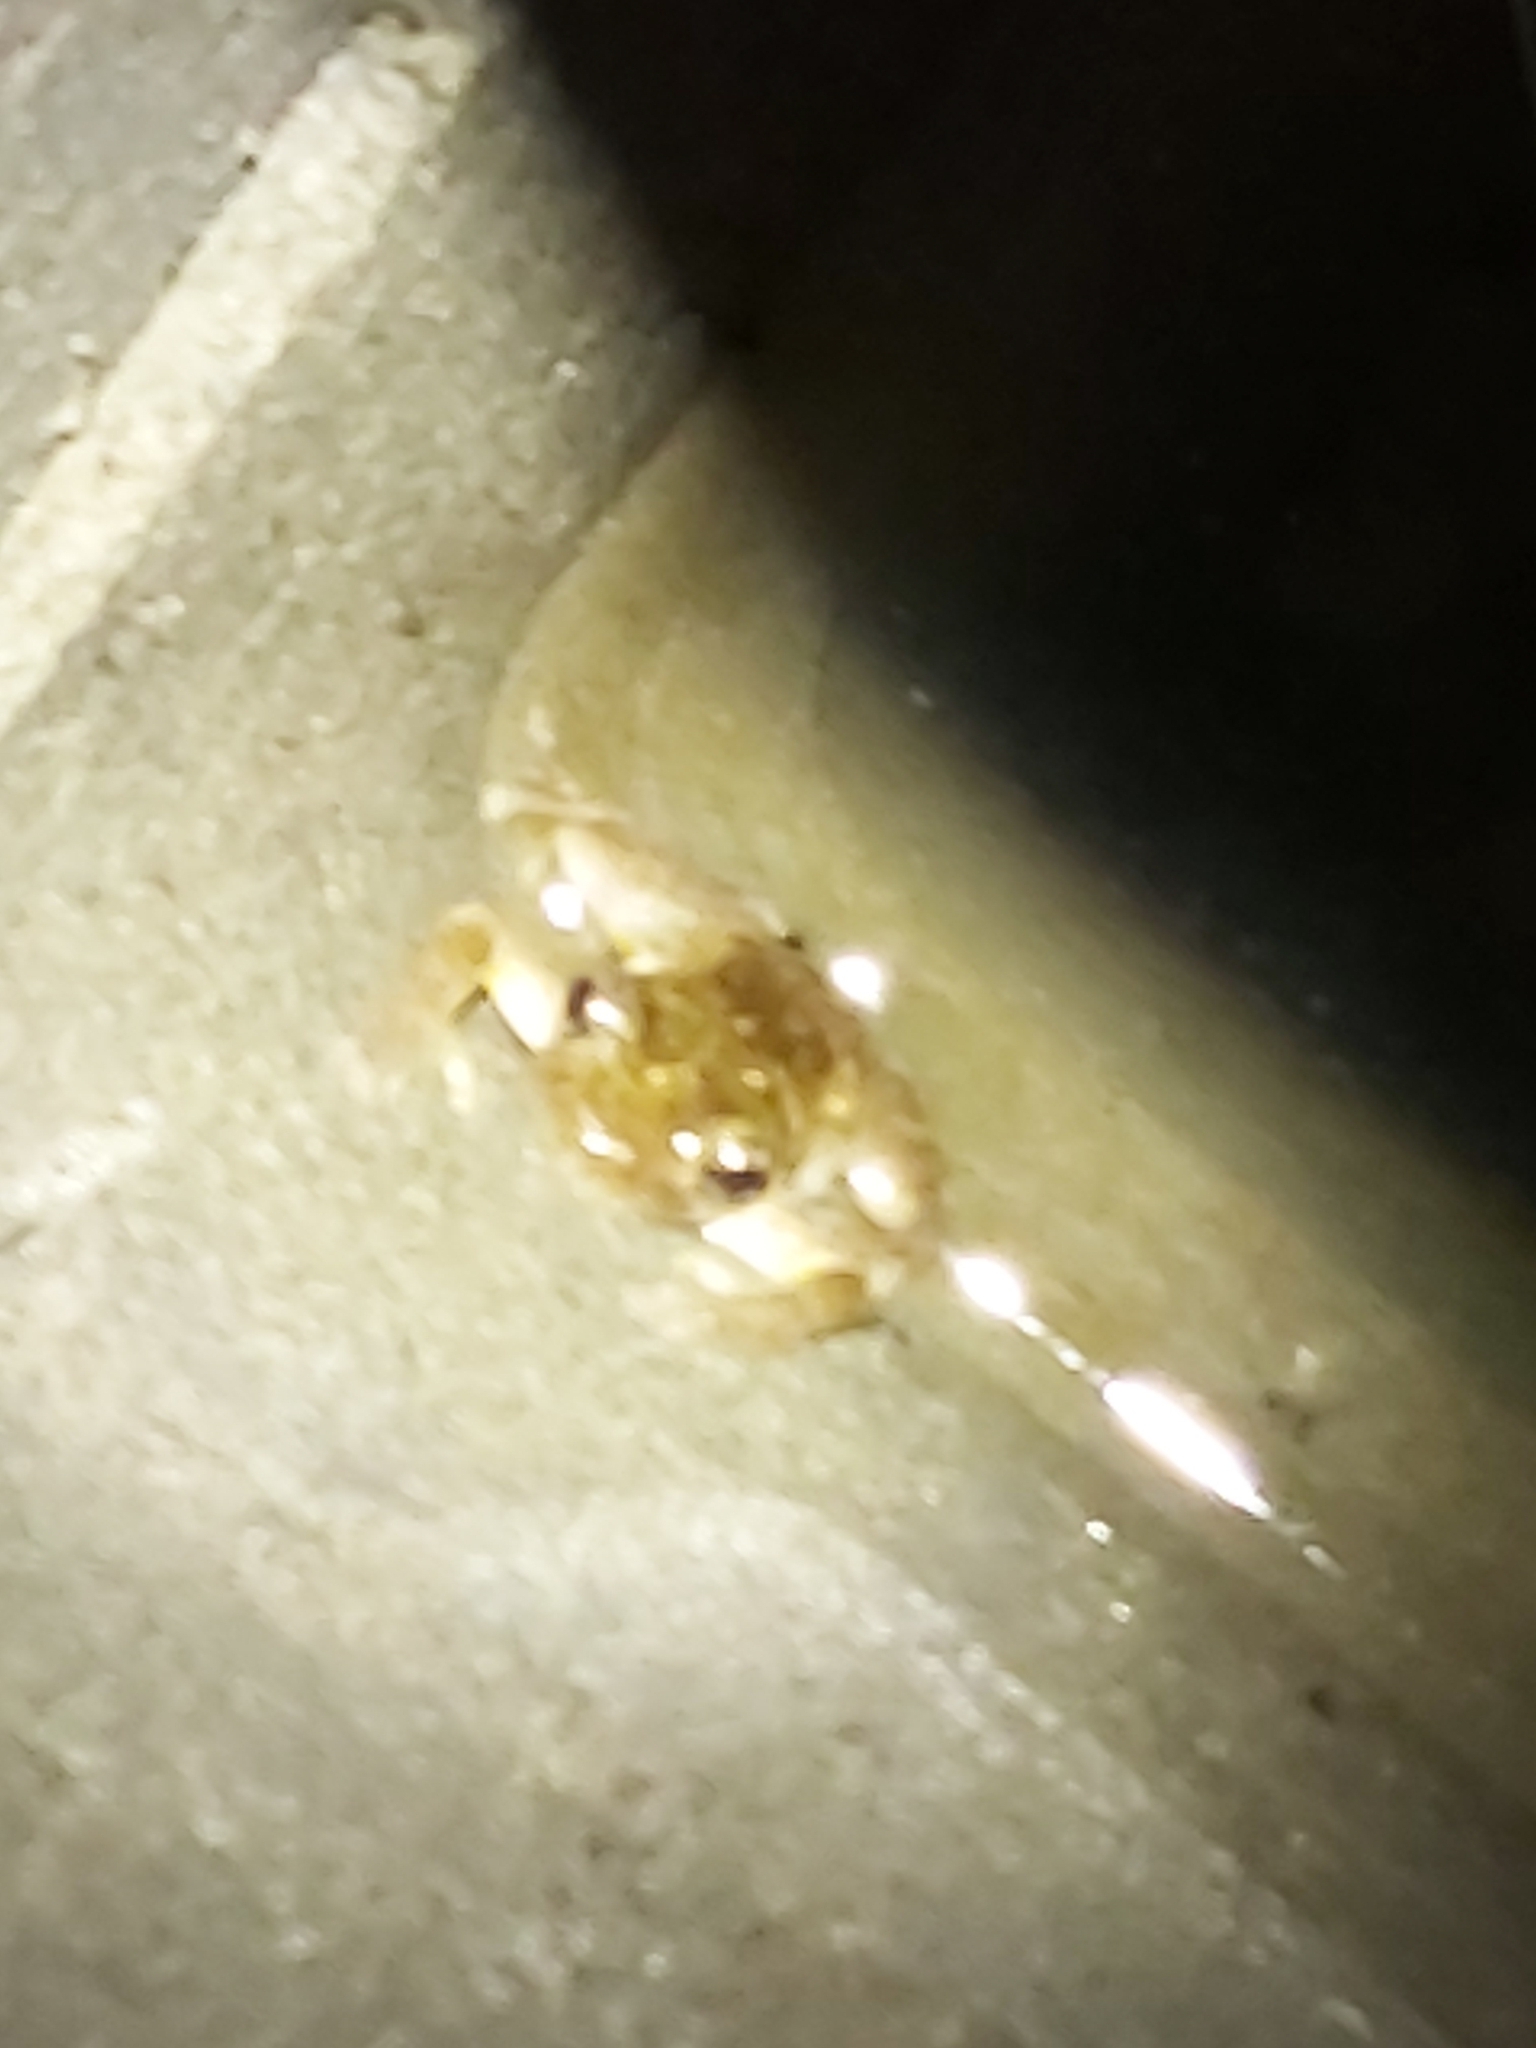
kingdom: Animalia
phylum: Chordata
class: Amphibia
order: Anura
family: Pelodryadidae
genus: Litoria
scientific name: Litoria peronii
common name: Emerald spotted treefrog
